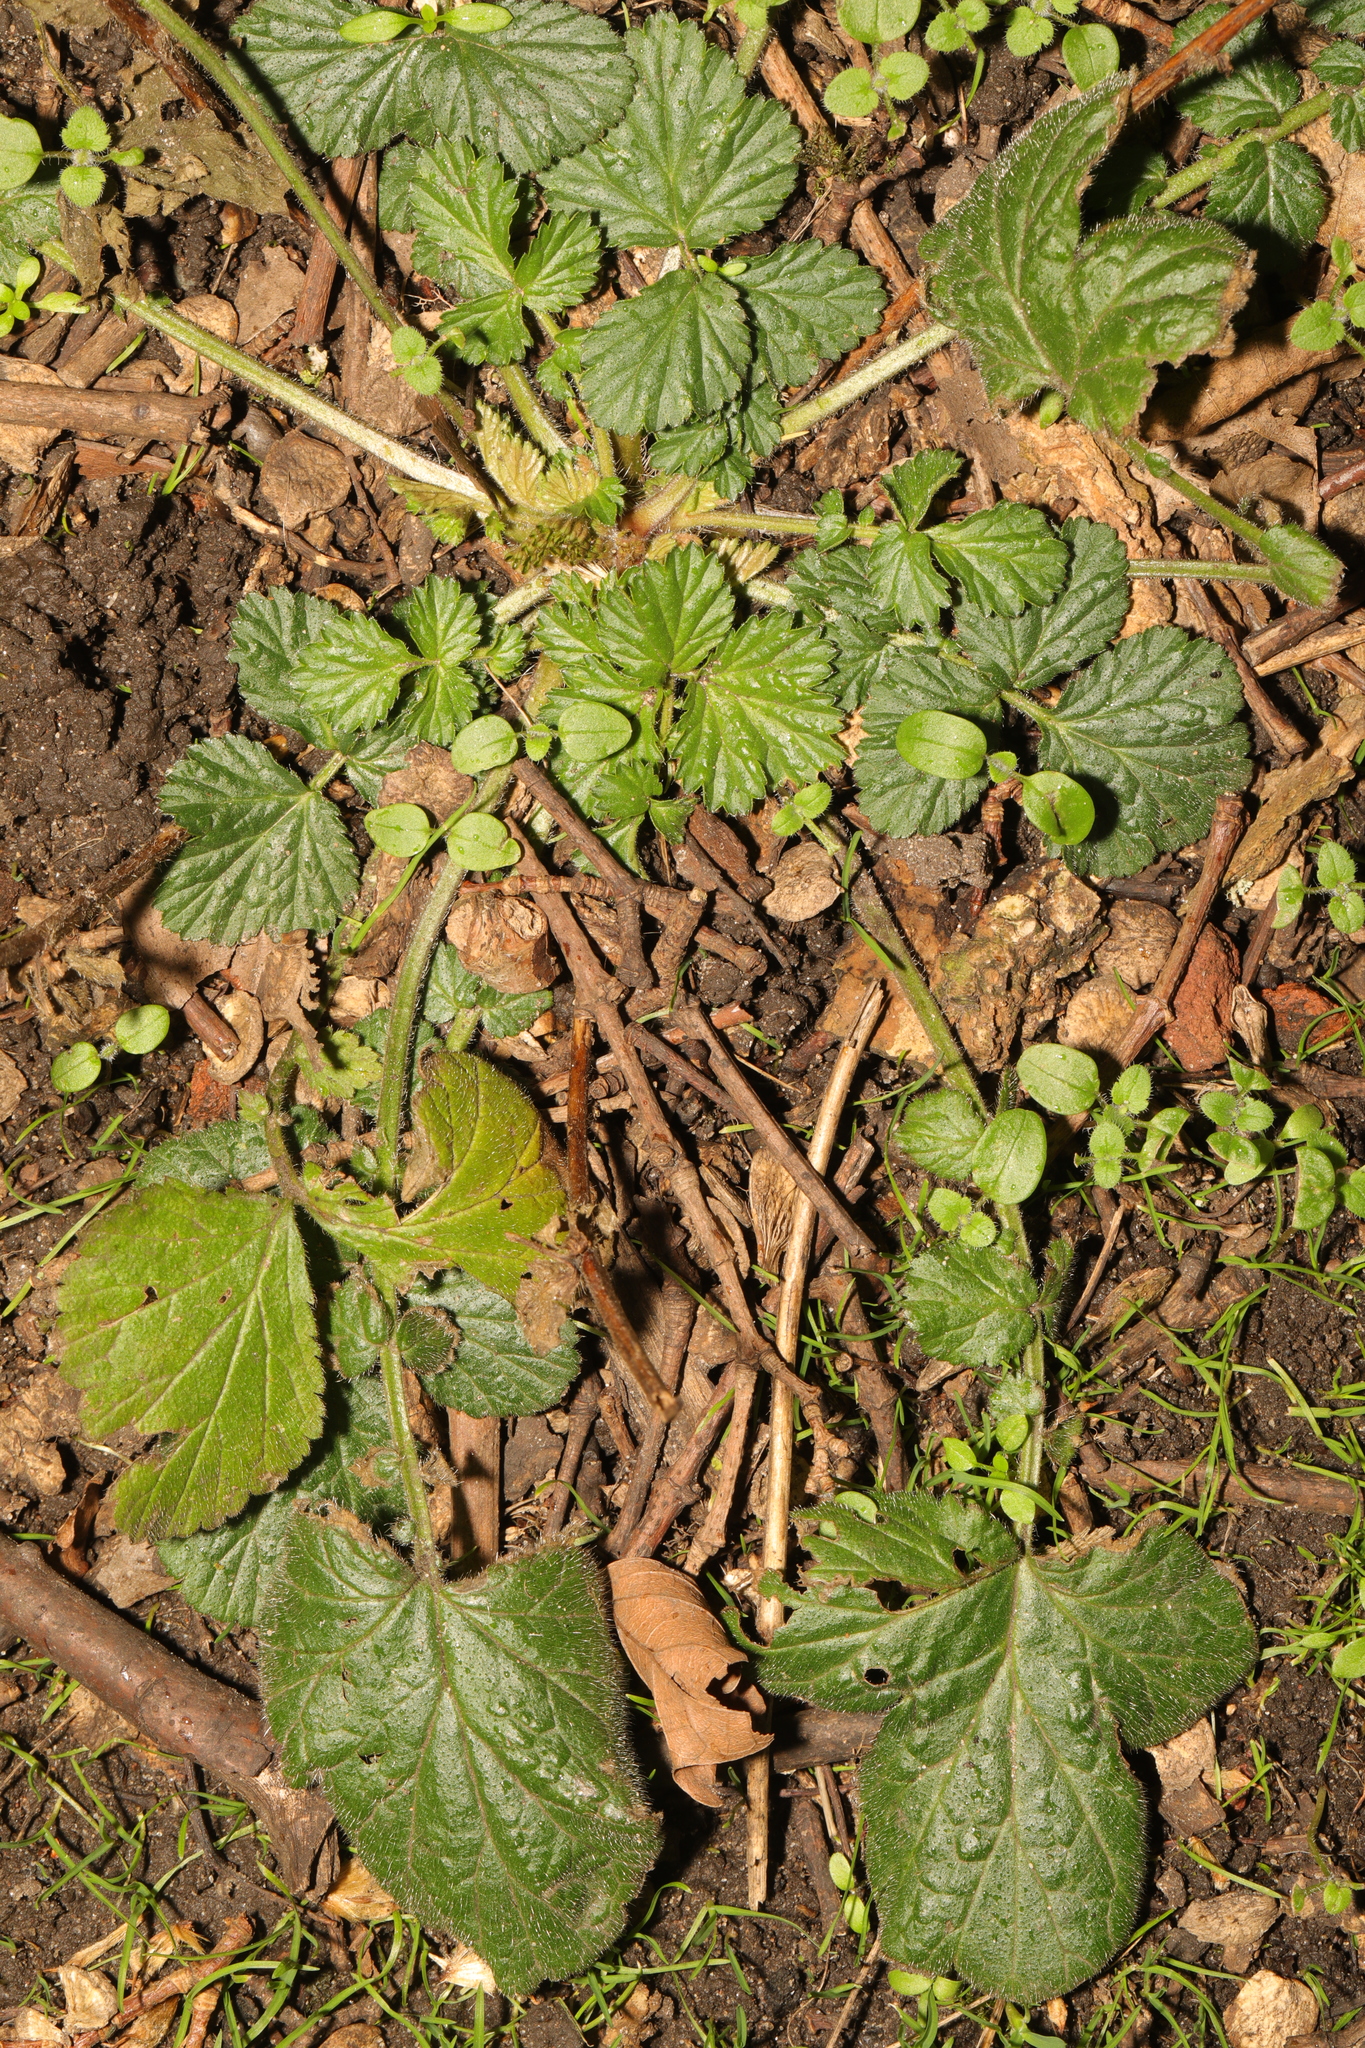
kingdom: Plantae
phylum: Tracheophyta
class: Magnoliopsida
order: Rosales
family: Rosaceae
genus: Geum
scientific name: Geum urbanum
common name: Wood avens
